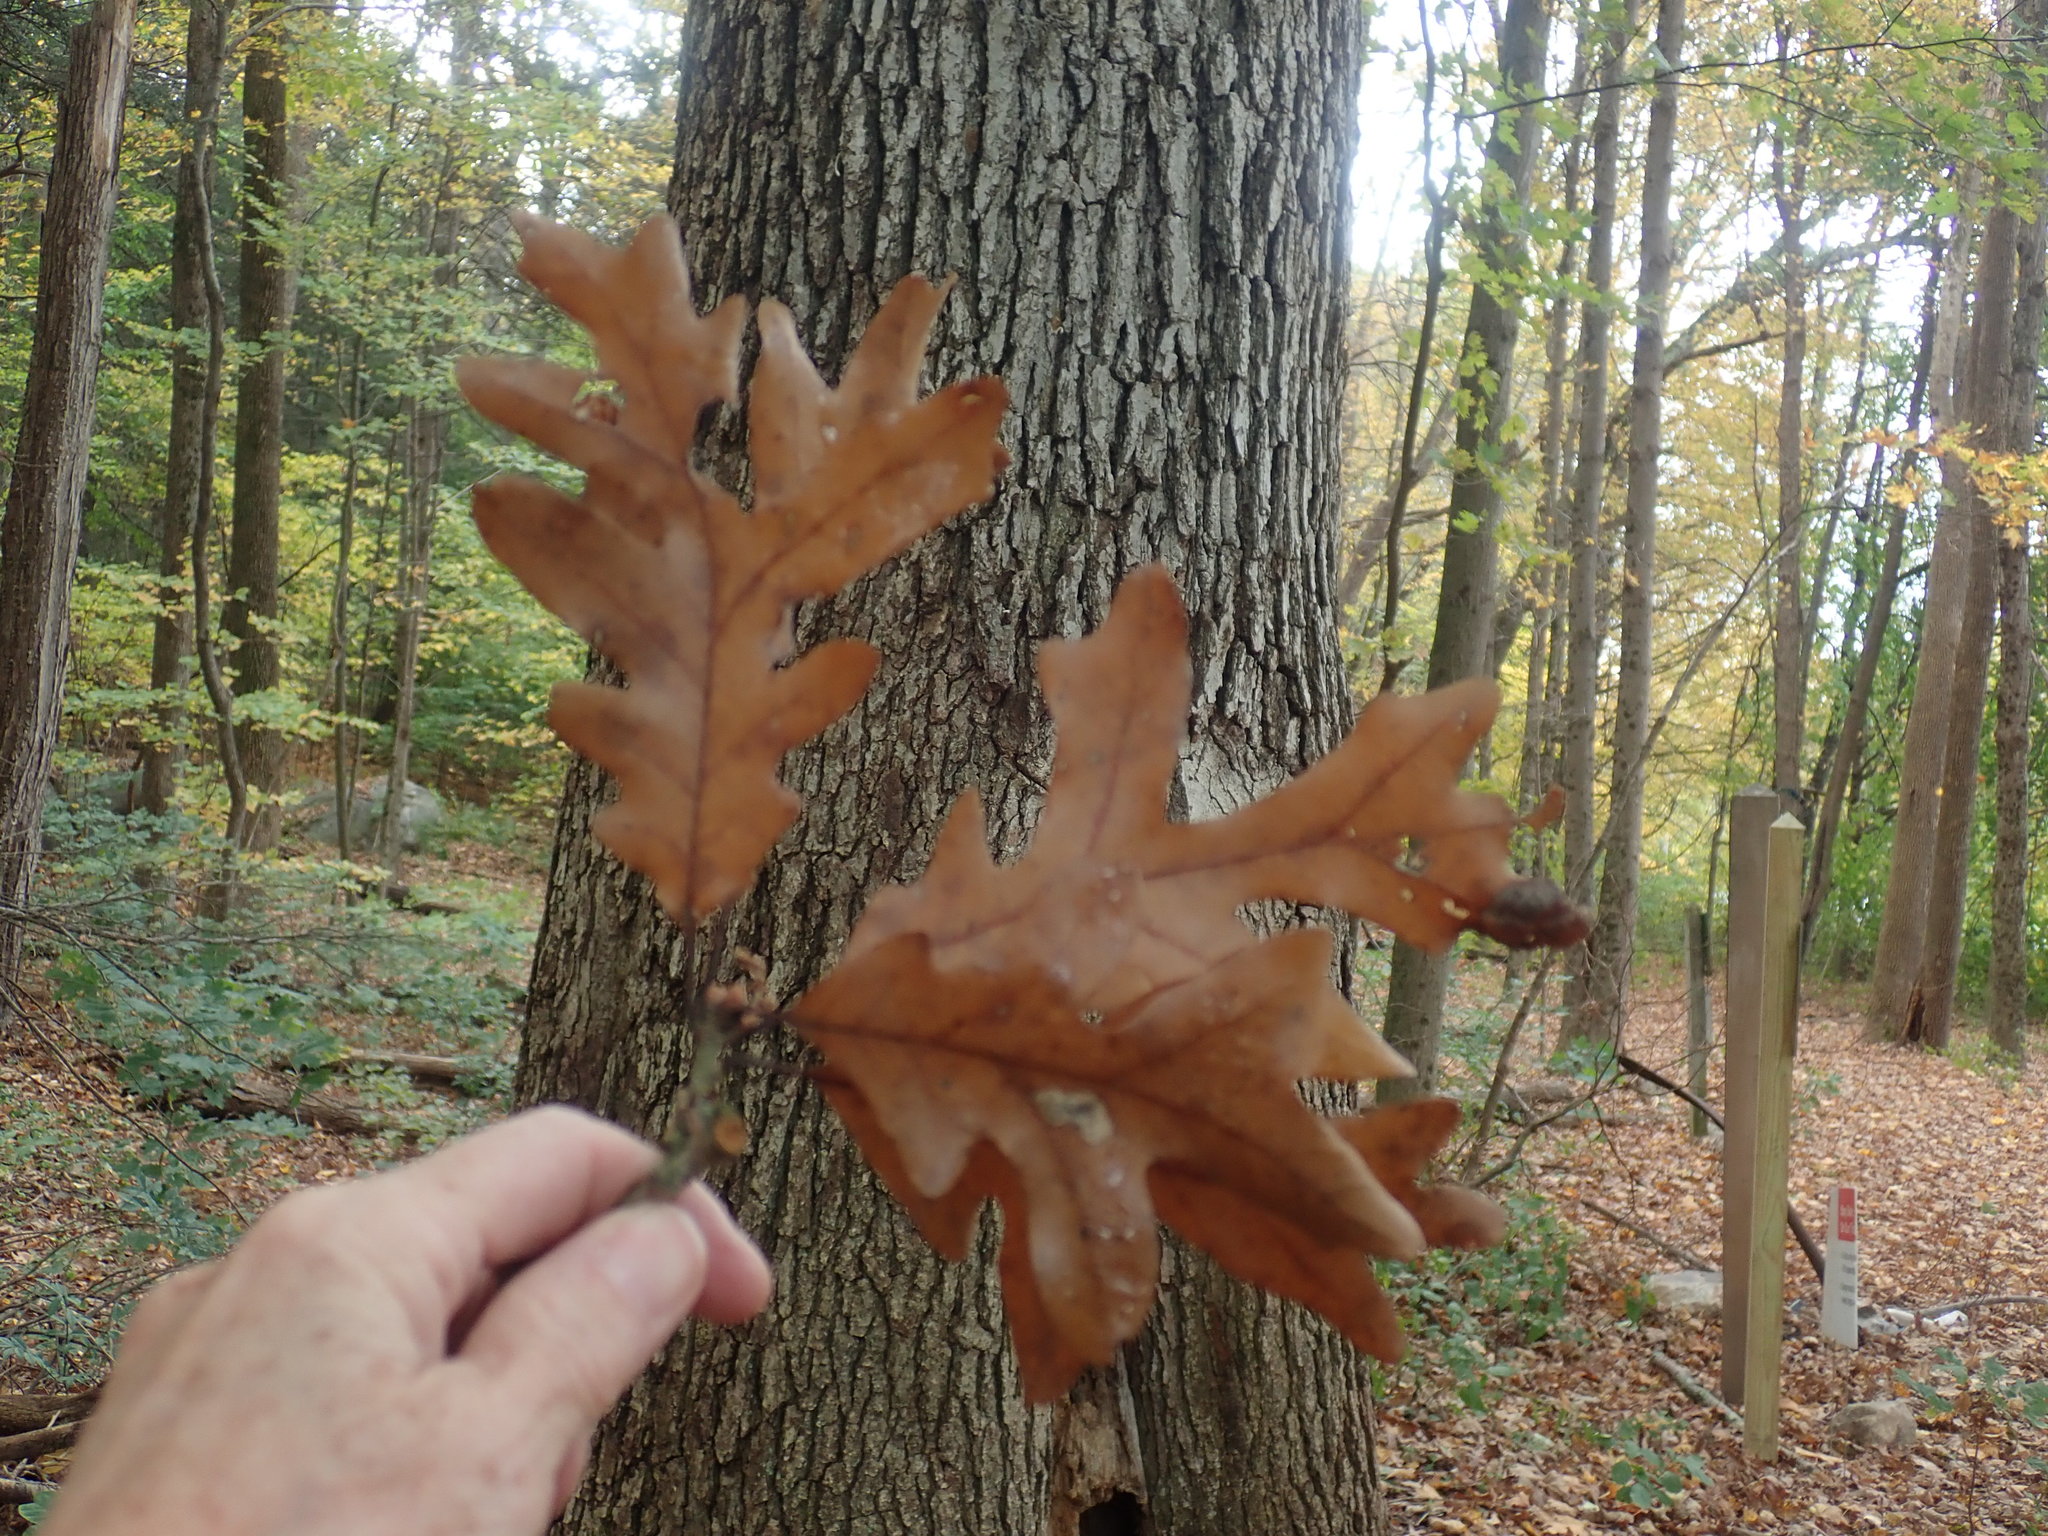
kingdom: Plantae
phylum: Tracheophyta
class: Magnoliopsida
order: Fagales
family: Fagaceae
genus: Quercus
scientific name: Quercus alba
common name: White oak
